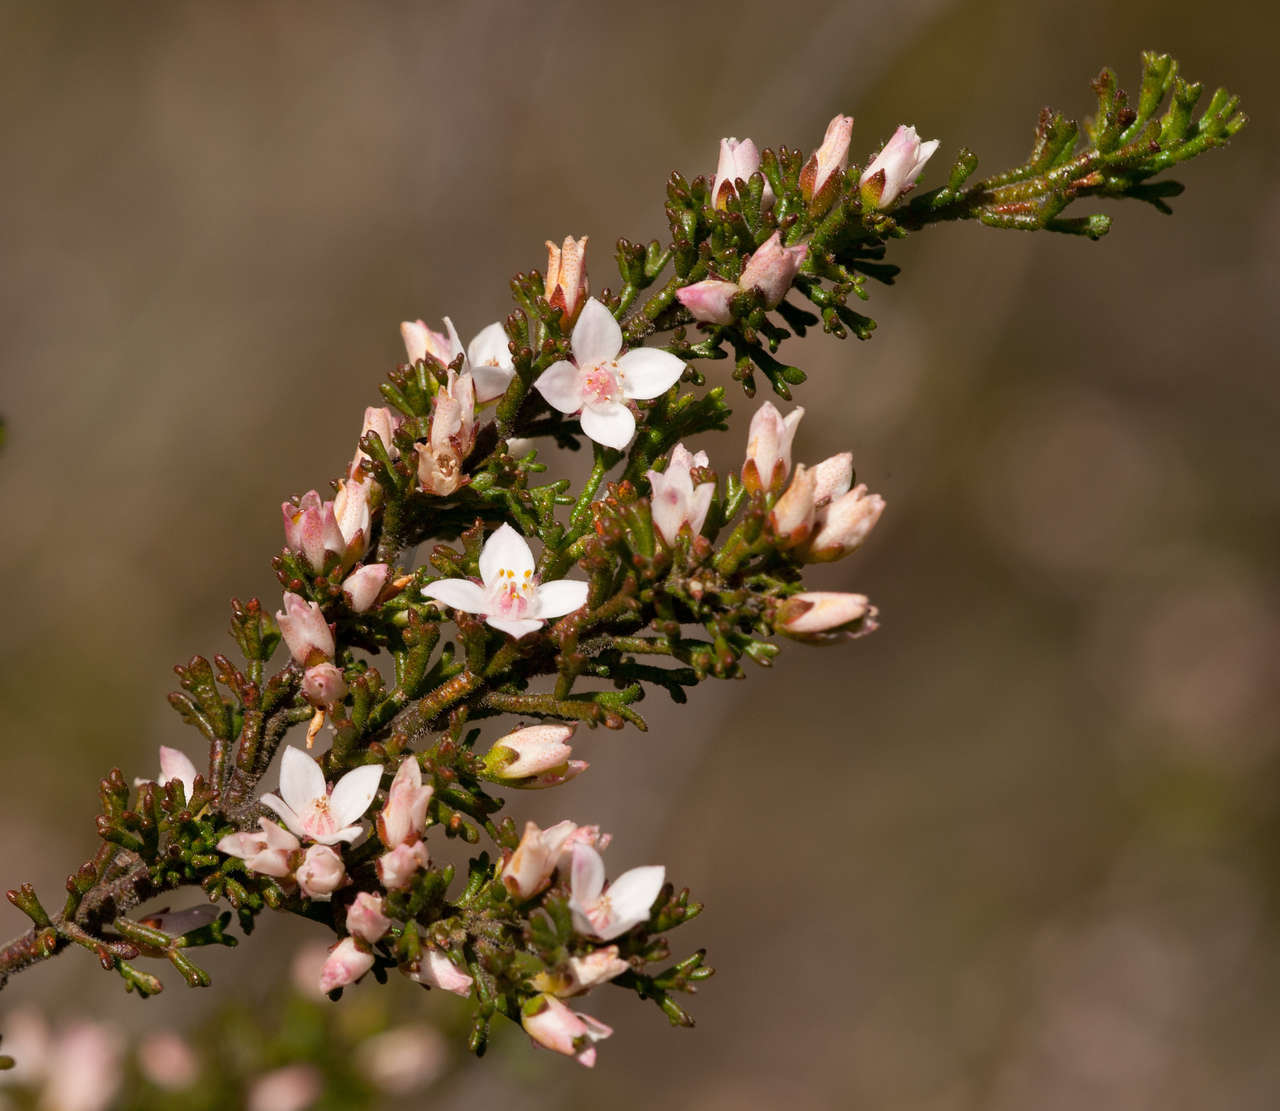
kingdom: Plantae
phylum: Tracheophyta
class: Magnoliopsida
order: Sapindales
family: Rutaceae
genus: Cyanothamnus
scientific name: Cyanothamnus anemonifolius
